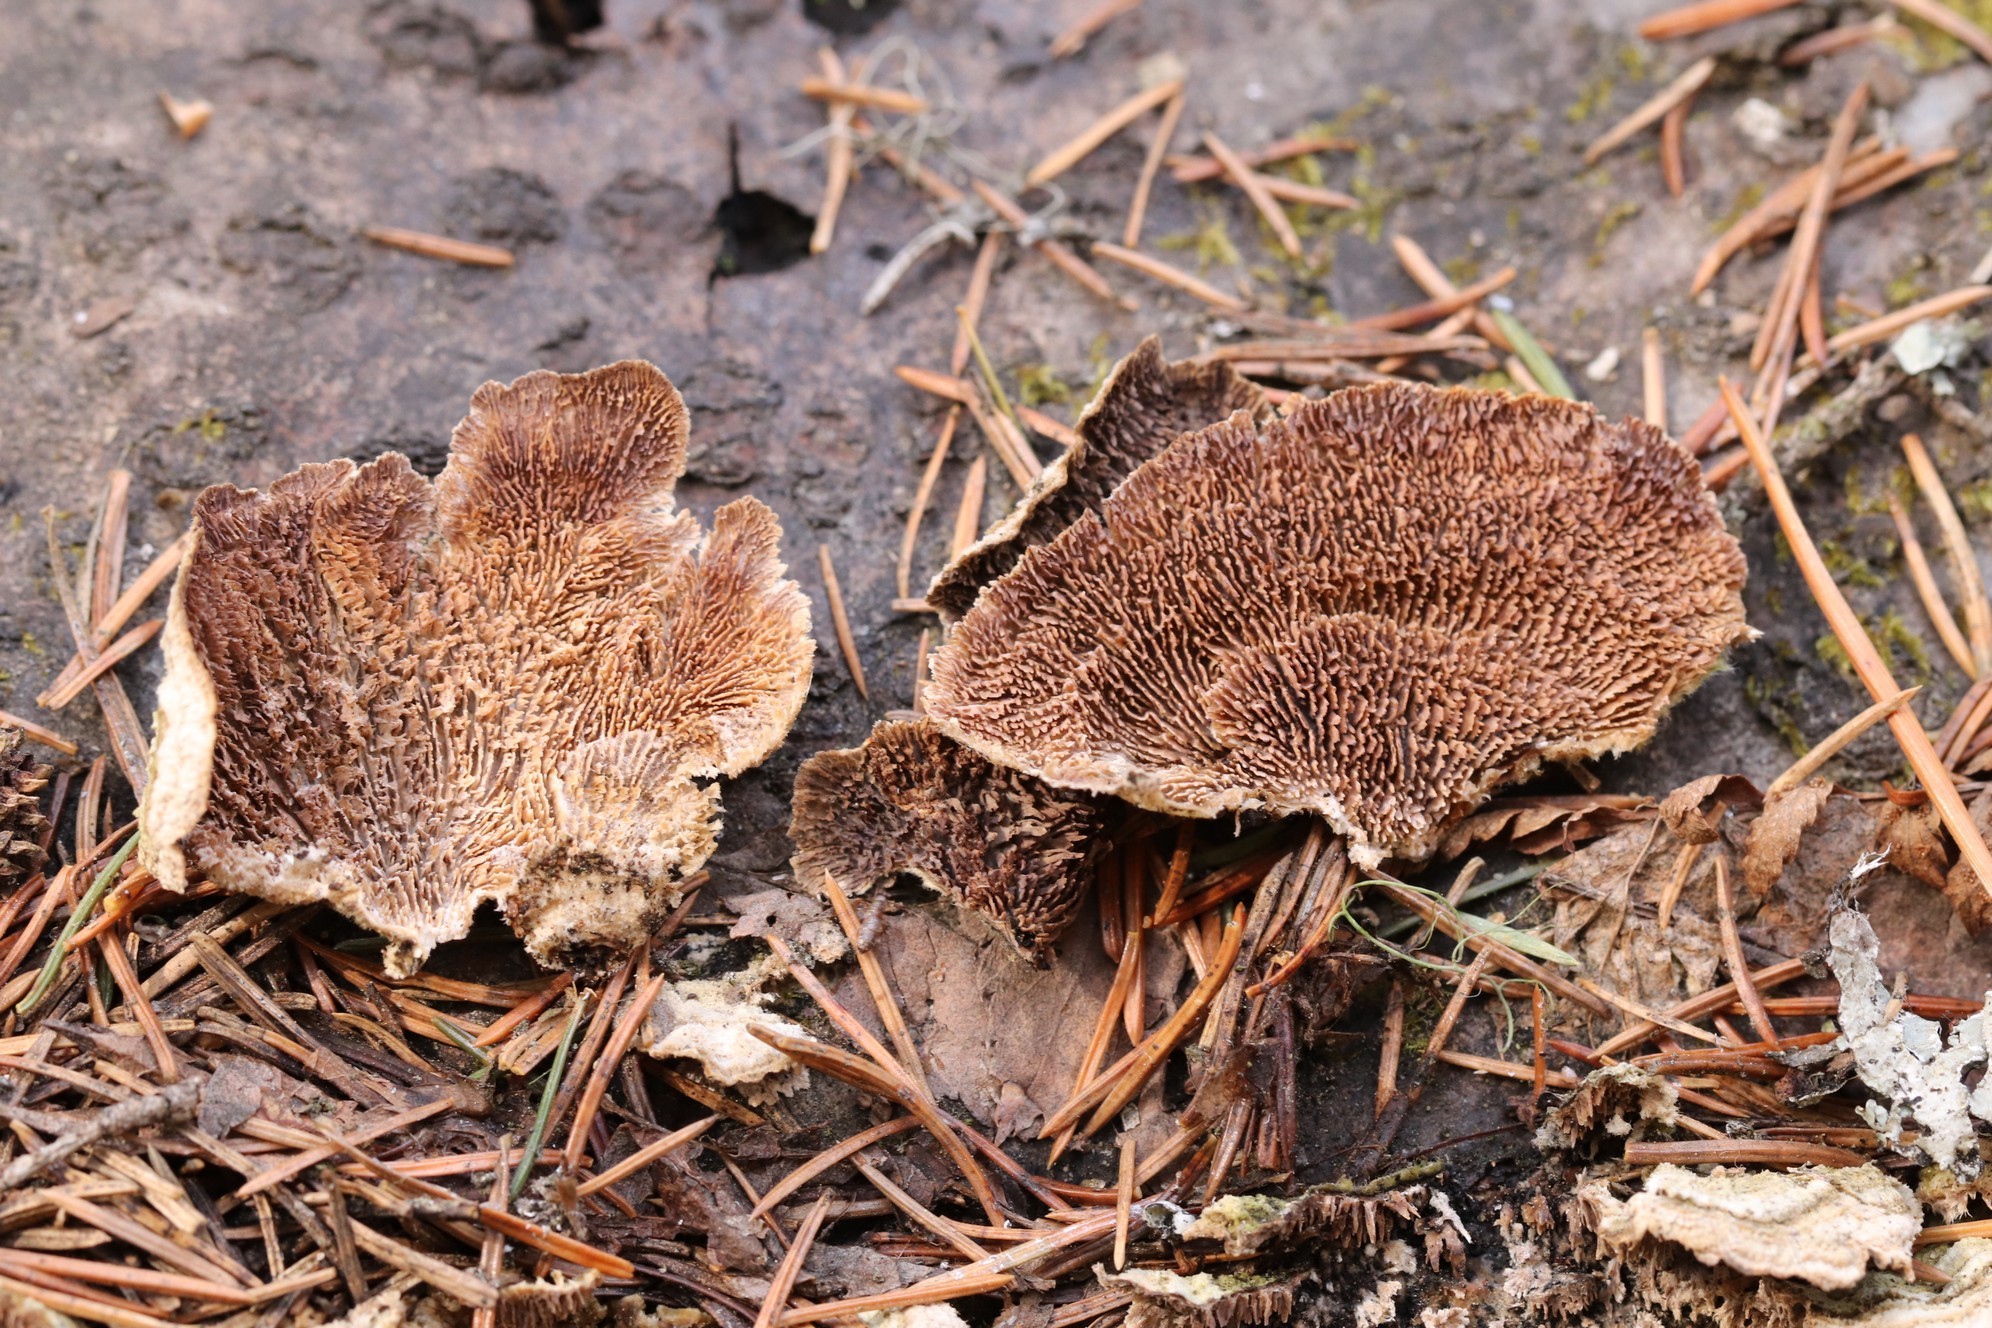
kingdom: Fungi
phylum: Basidiomycota
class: Agaricomycetes
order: Hymenochaetales
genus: Trichaptum
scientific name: Trichaptum fuscoviolaceum
